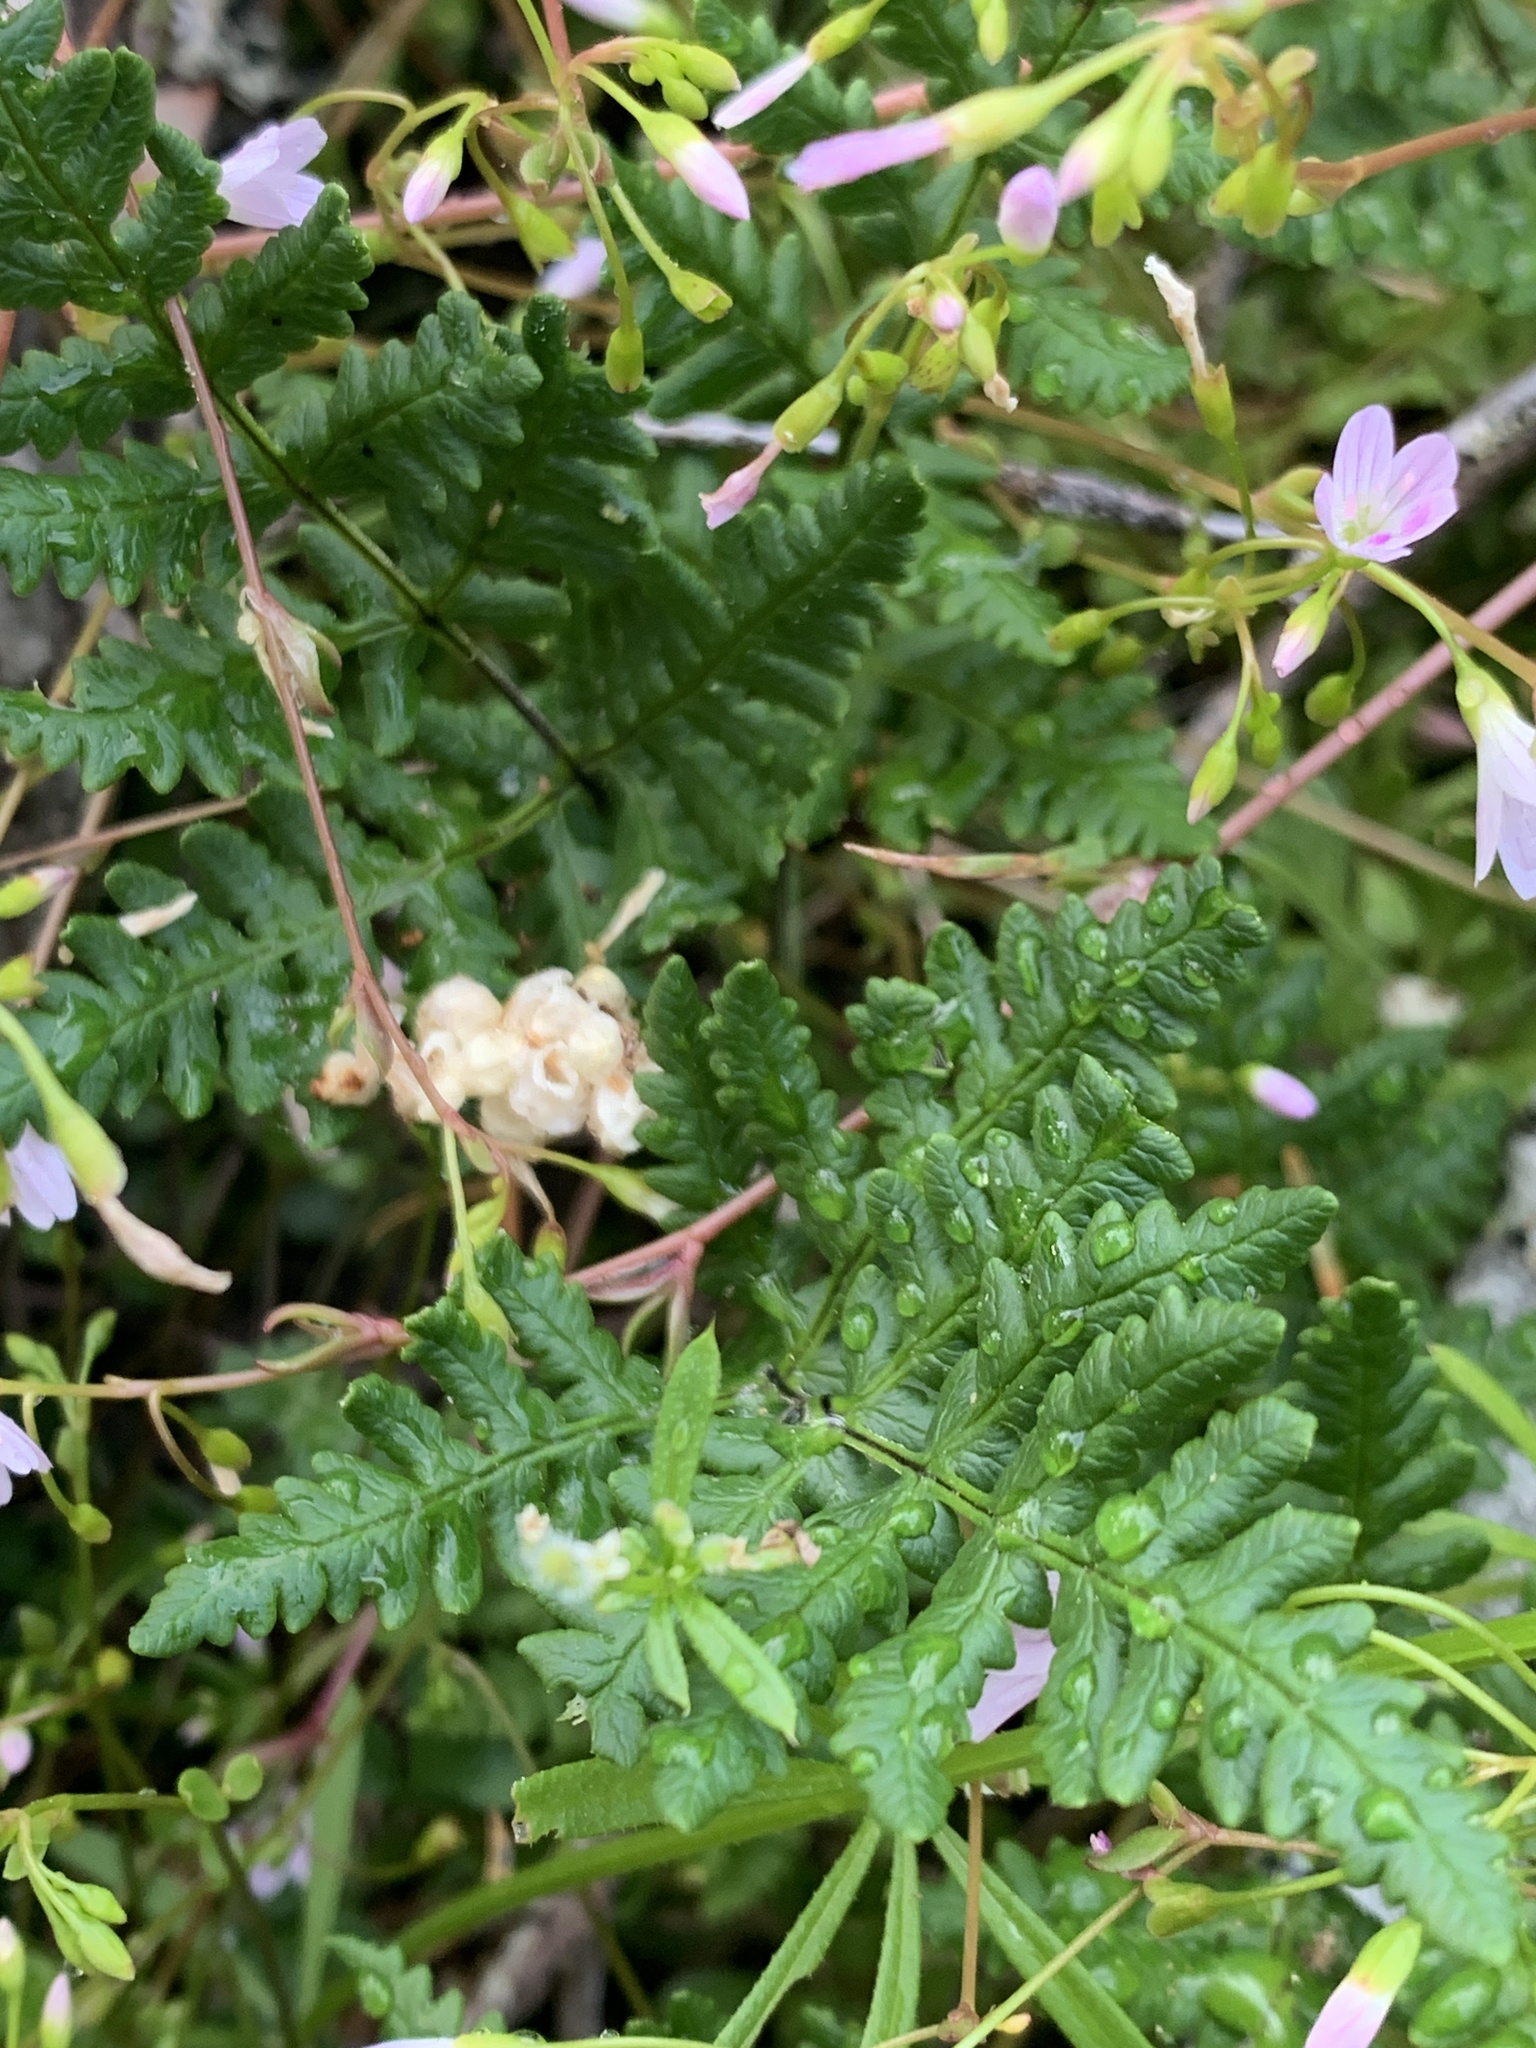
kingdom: Plantae
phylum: Tracheophyta
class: Polypodiopsida
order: Polypodiales
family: Pteridaceae
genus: Pentagramma
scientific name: Pentagramma triangularis
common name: Gold fern
